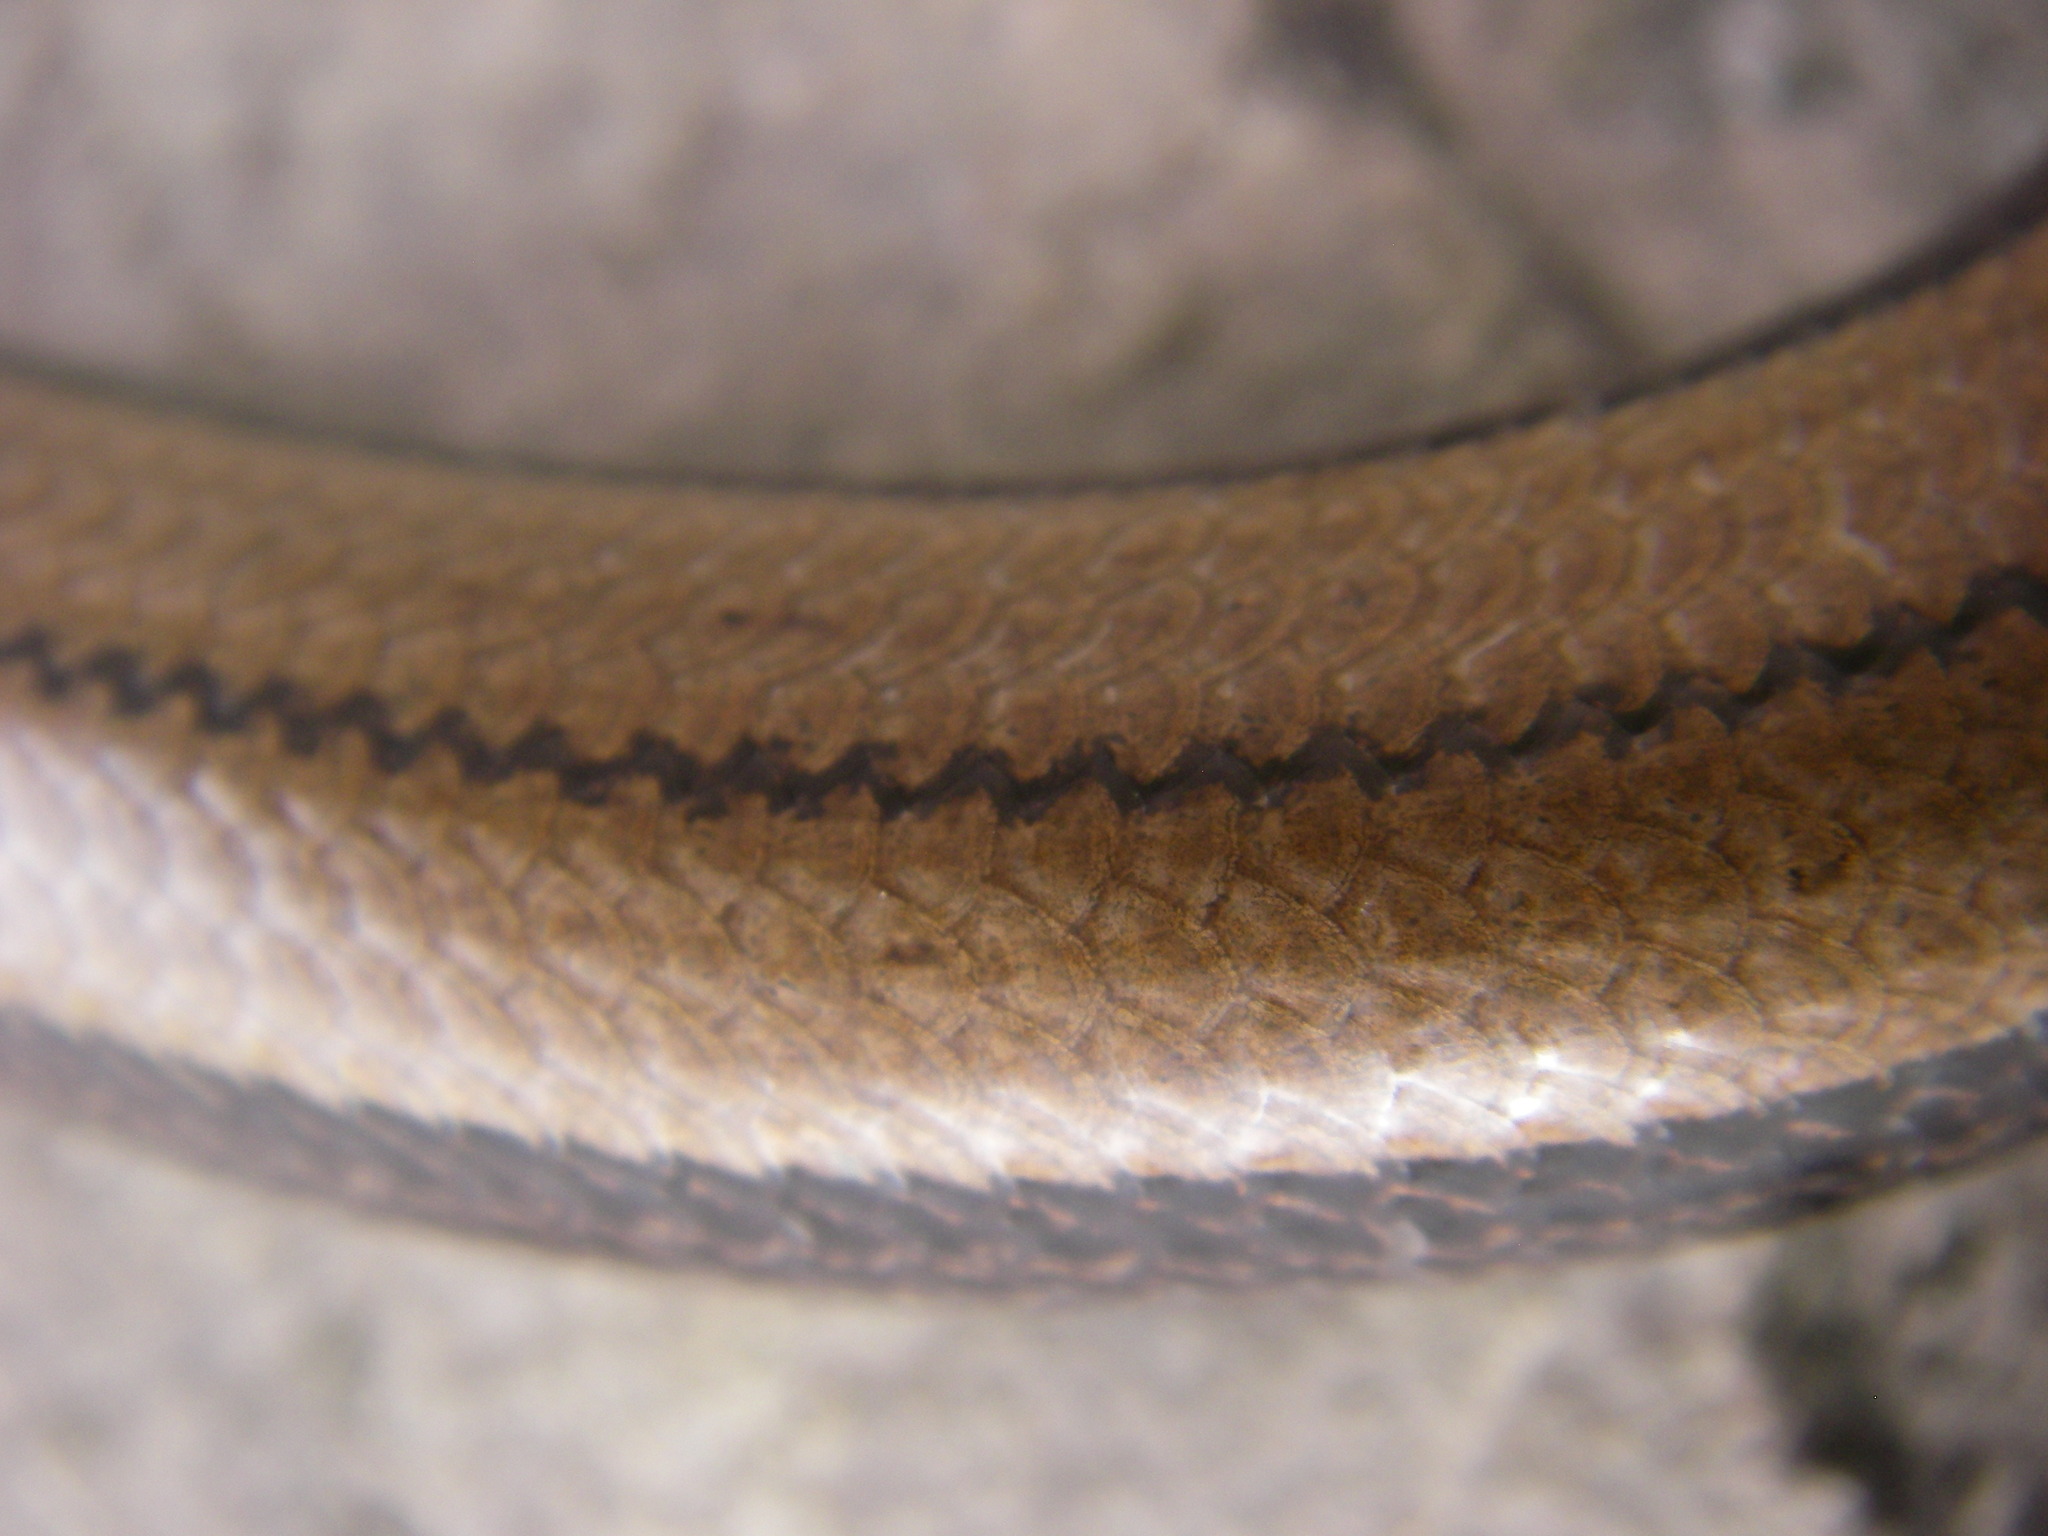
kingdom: Animalia
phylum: Chordata
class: Squamata
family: Anguidae
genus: Anguis
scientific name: Anguis fragilis
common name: Slow worm
